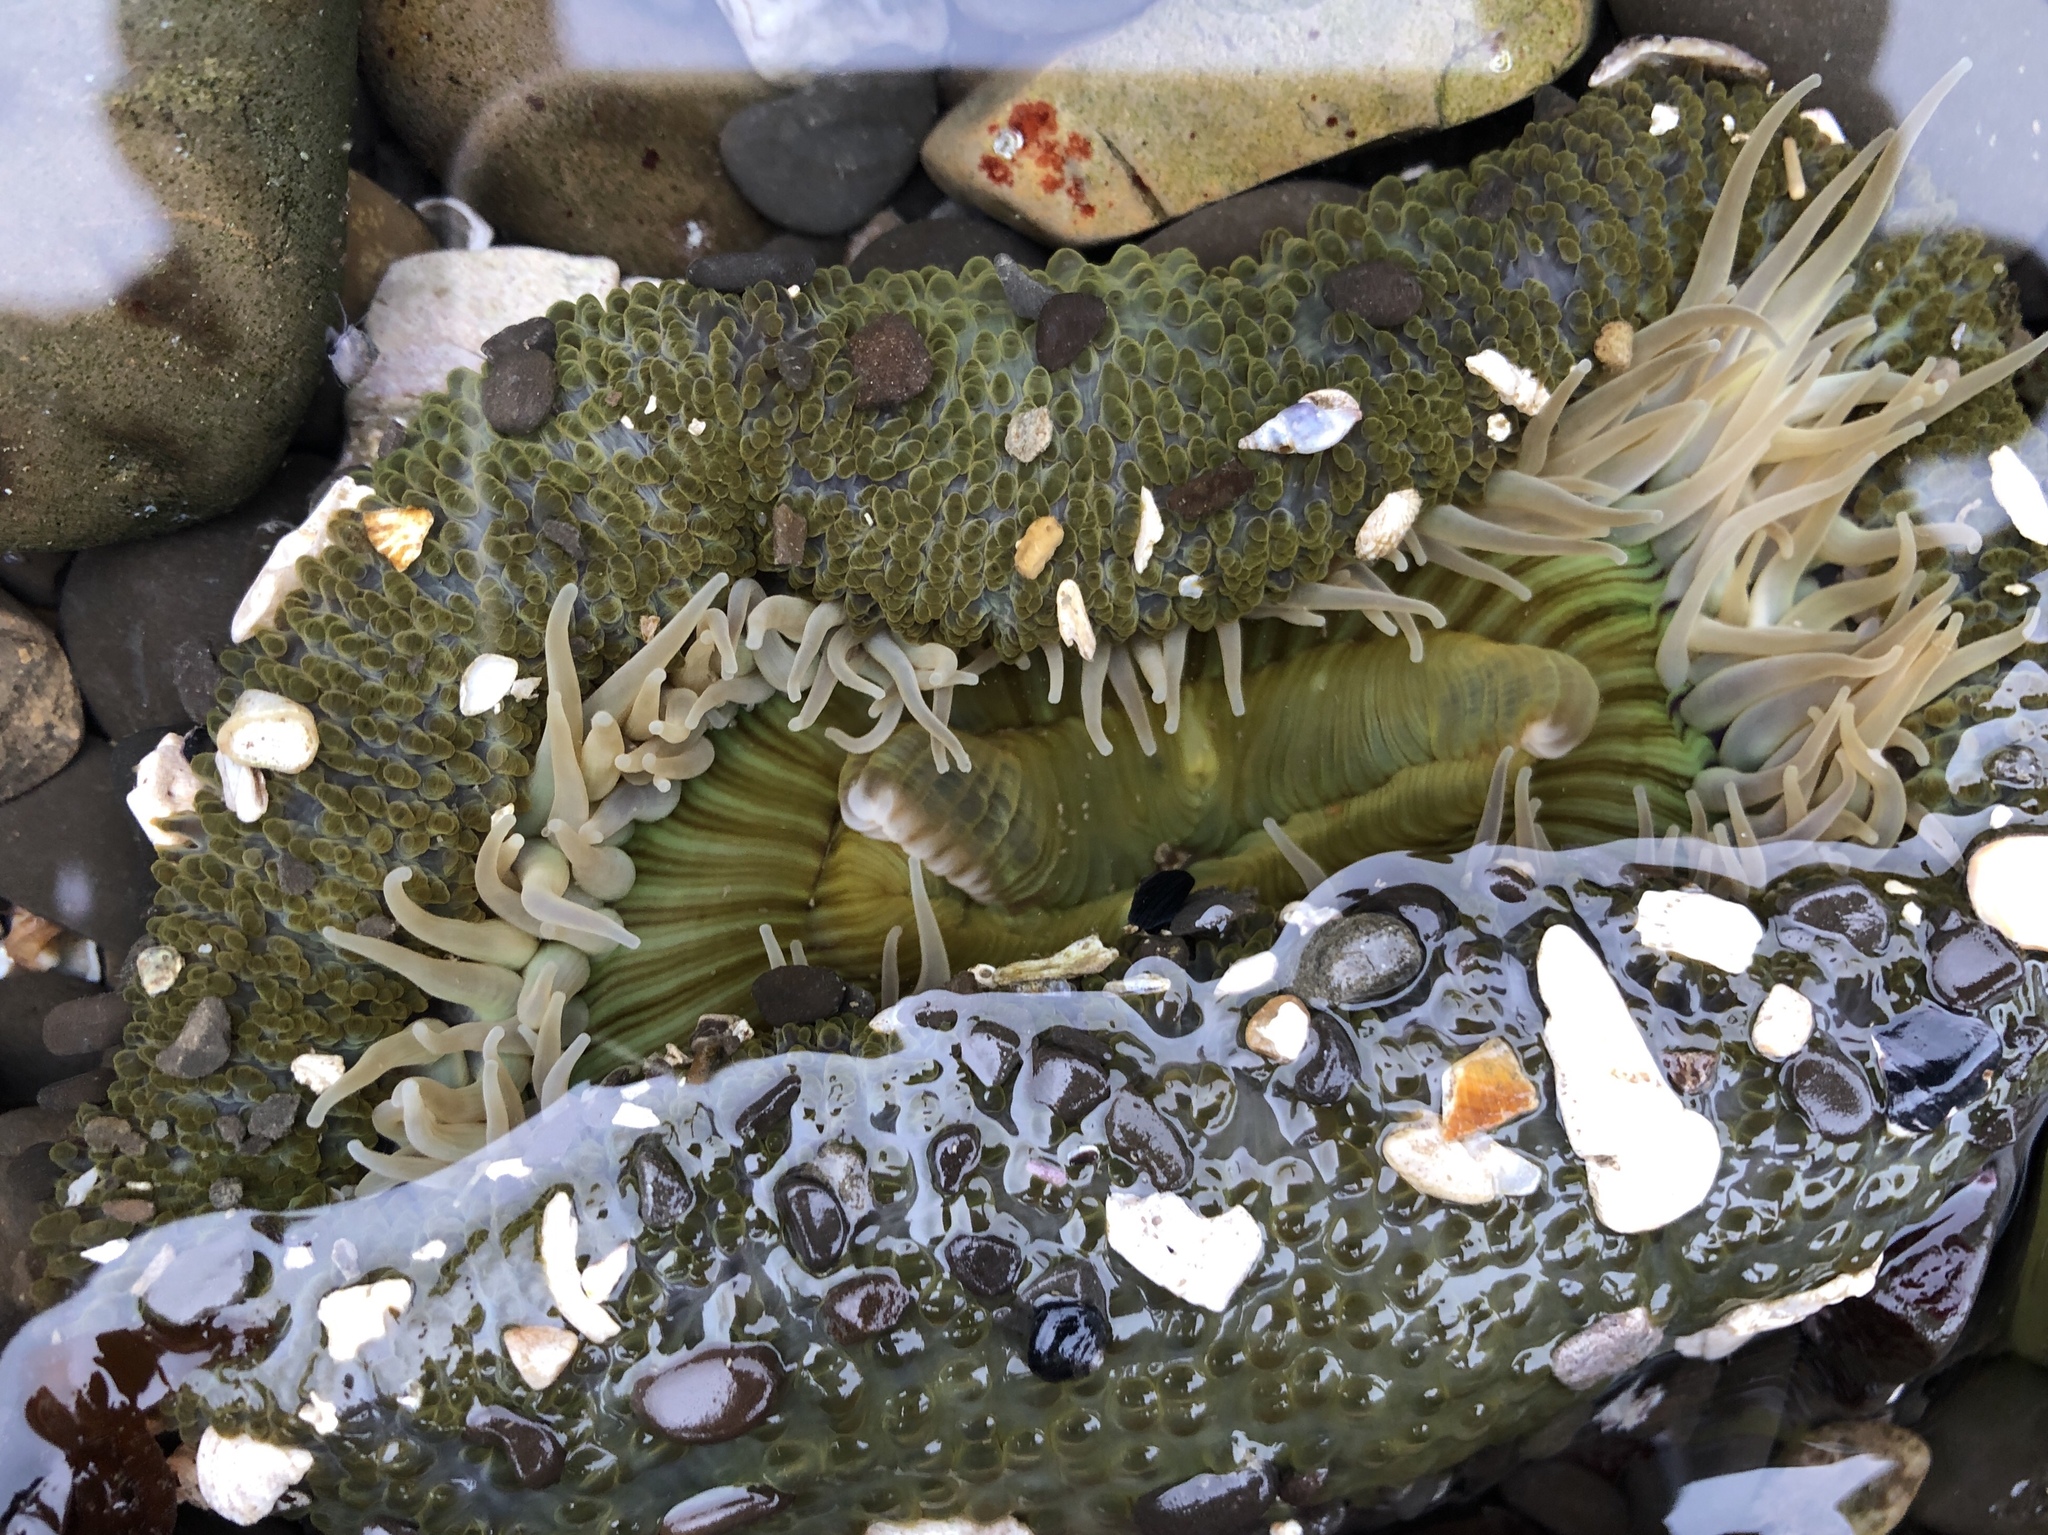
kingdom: Animalia
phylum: Cnidaria
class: Anthozoa
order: Actiniaria
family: Actiniidae
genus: Anthopleura
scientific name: Anthopleura sola
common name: Sun anemone
